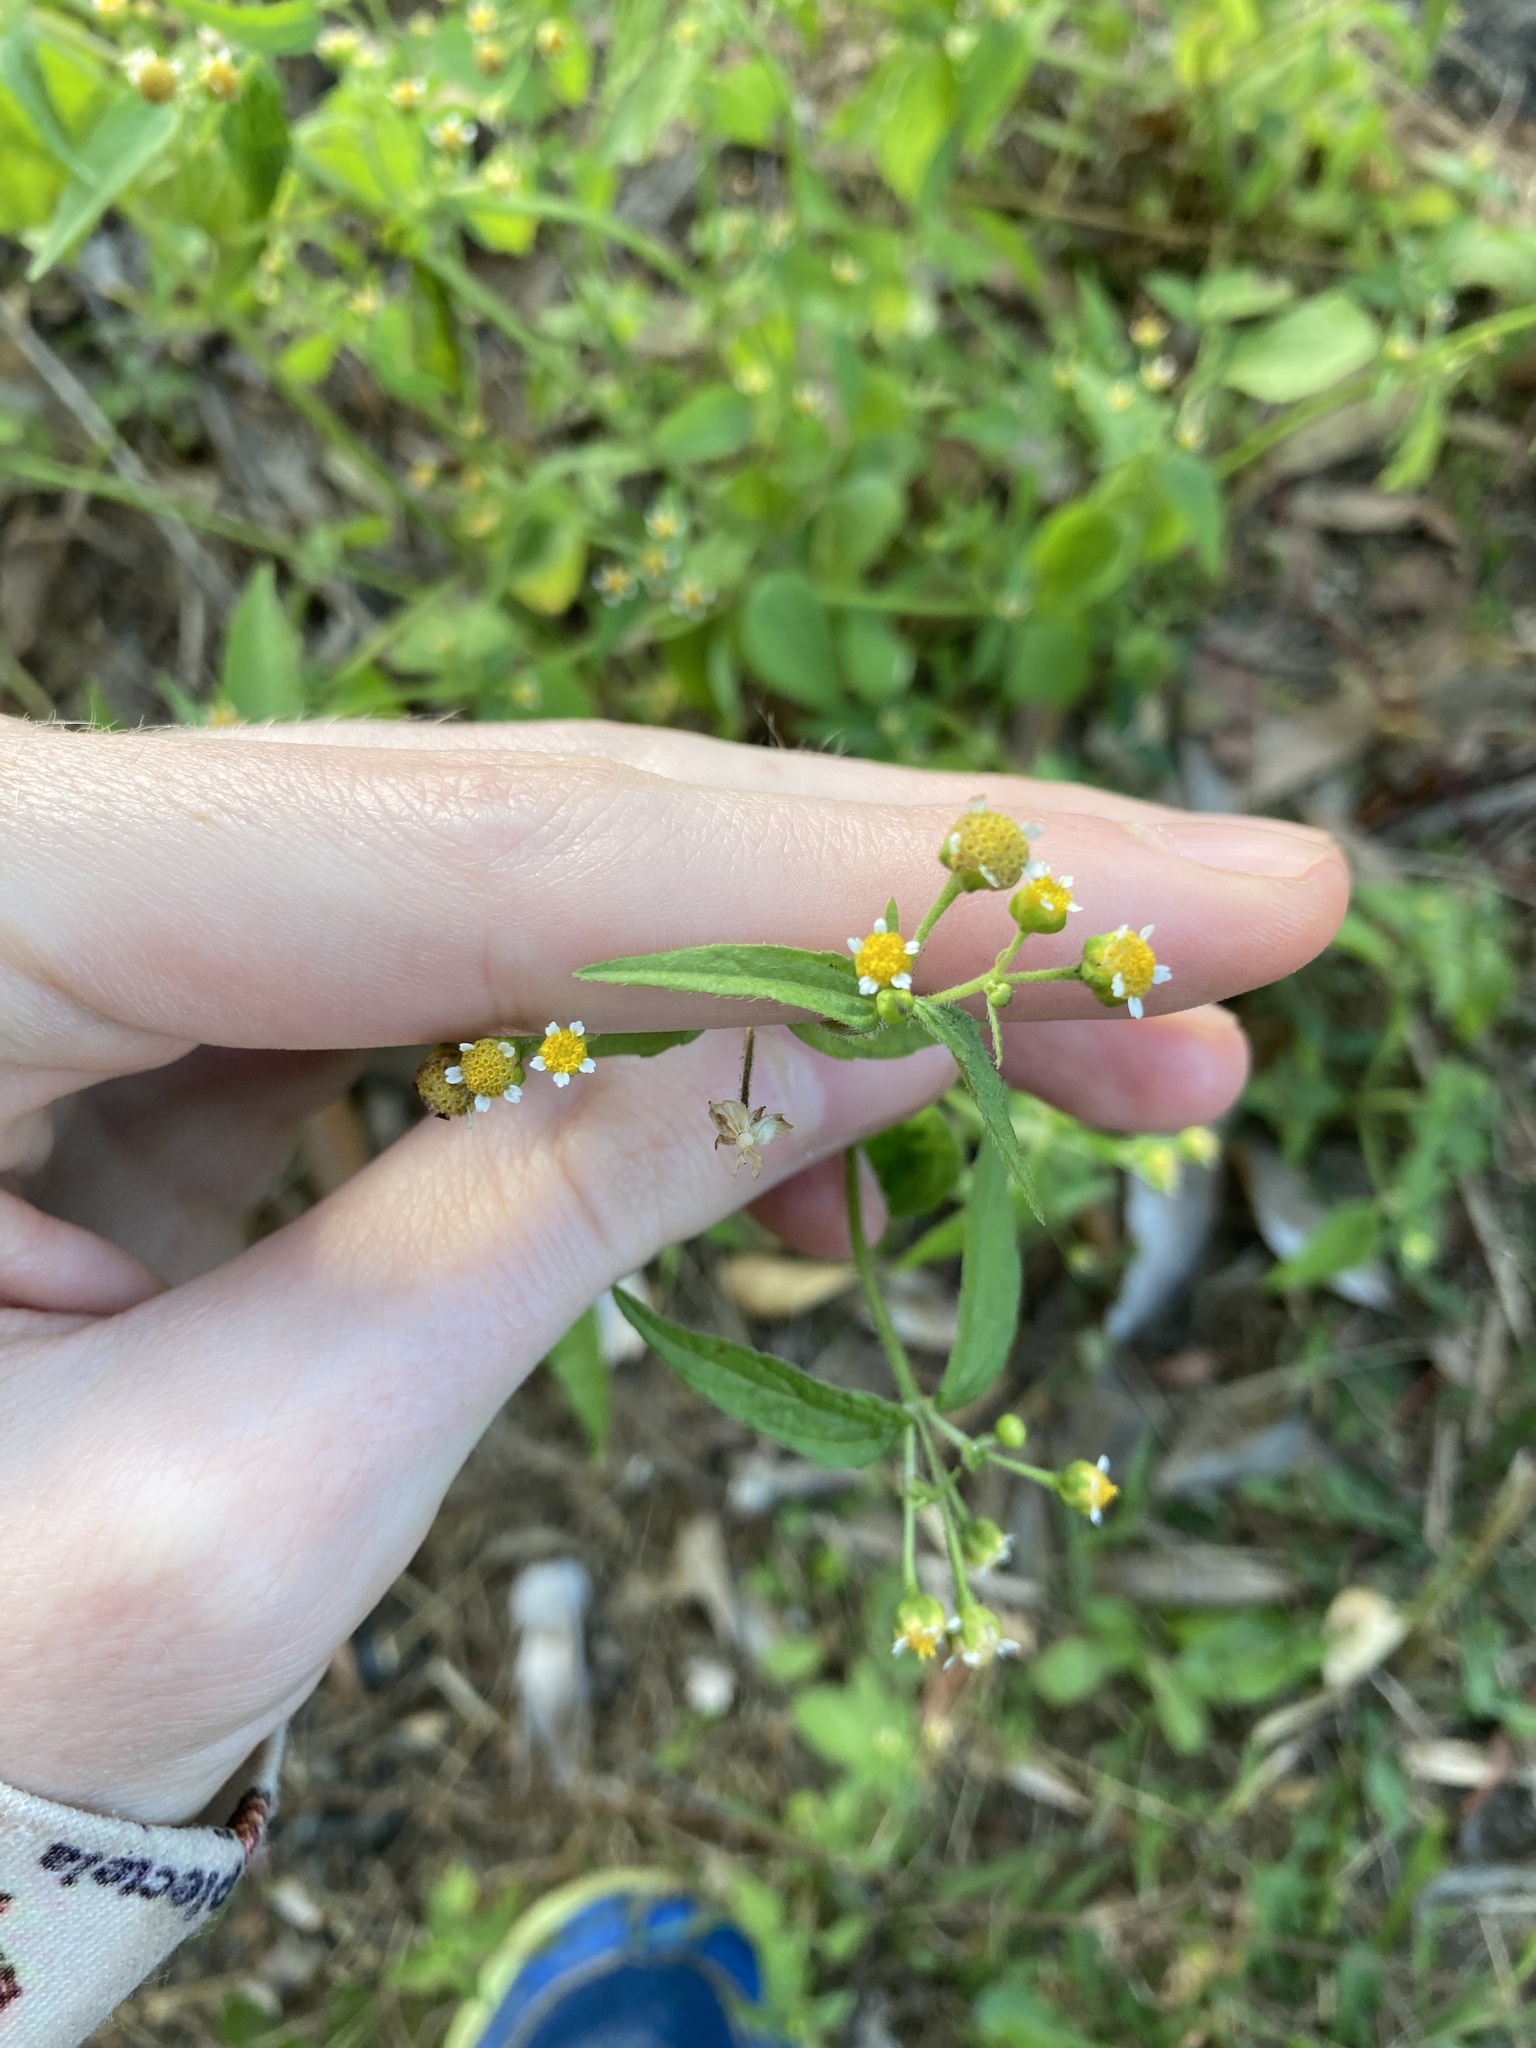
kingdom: Plantae
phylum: Tracheophyta
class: Magnoliopsida
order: Asterales
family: Asteraceae
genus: Galinsoga
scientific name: Galinsoga parviflora
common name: Gallant soldier
